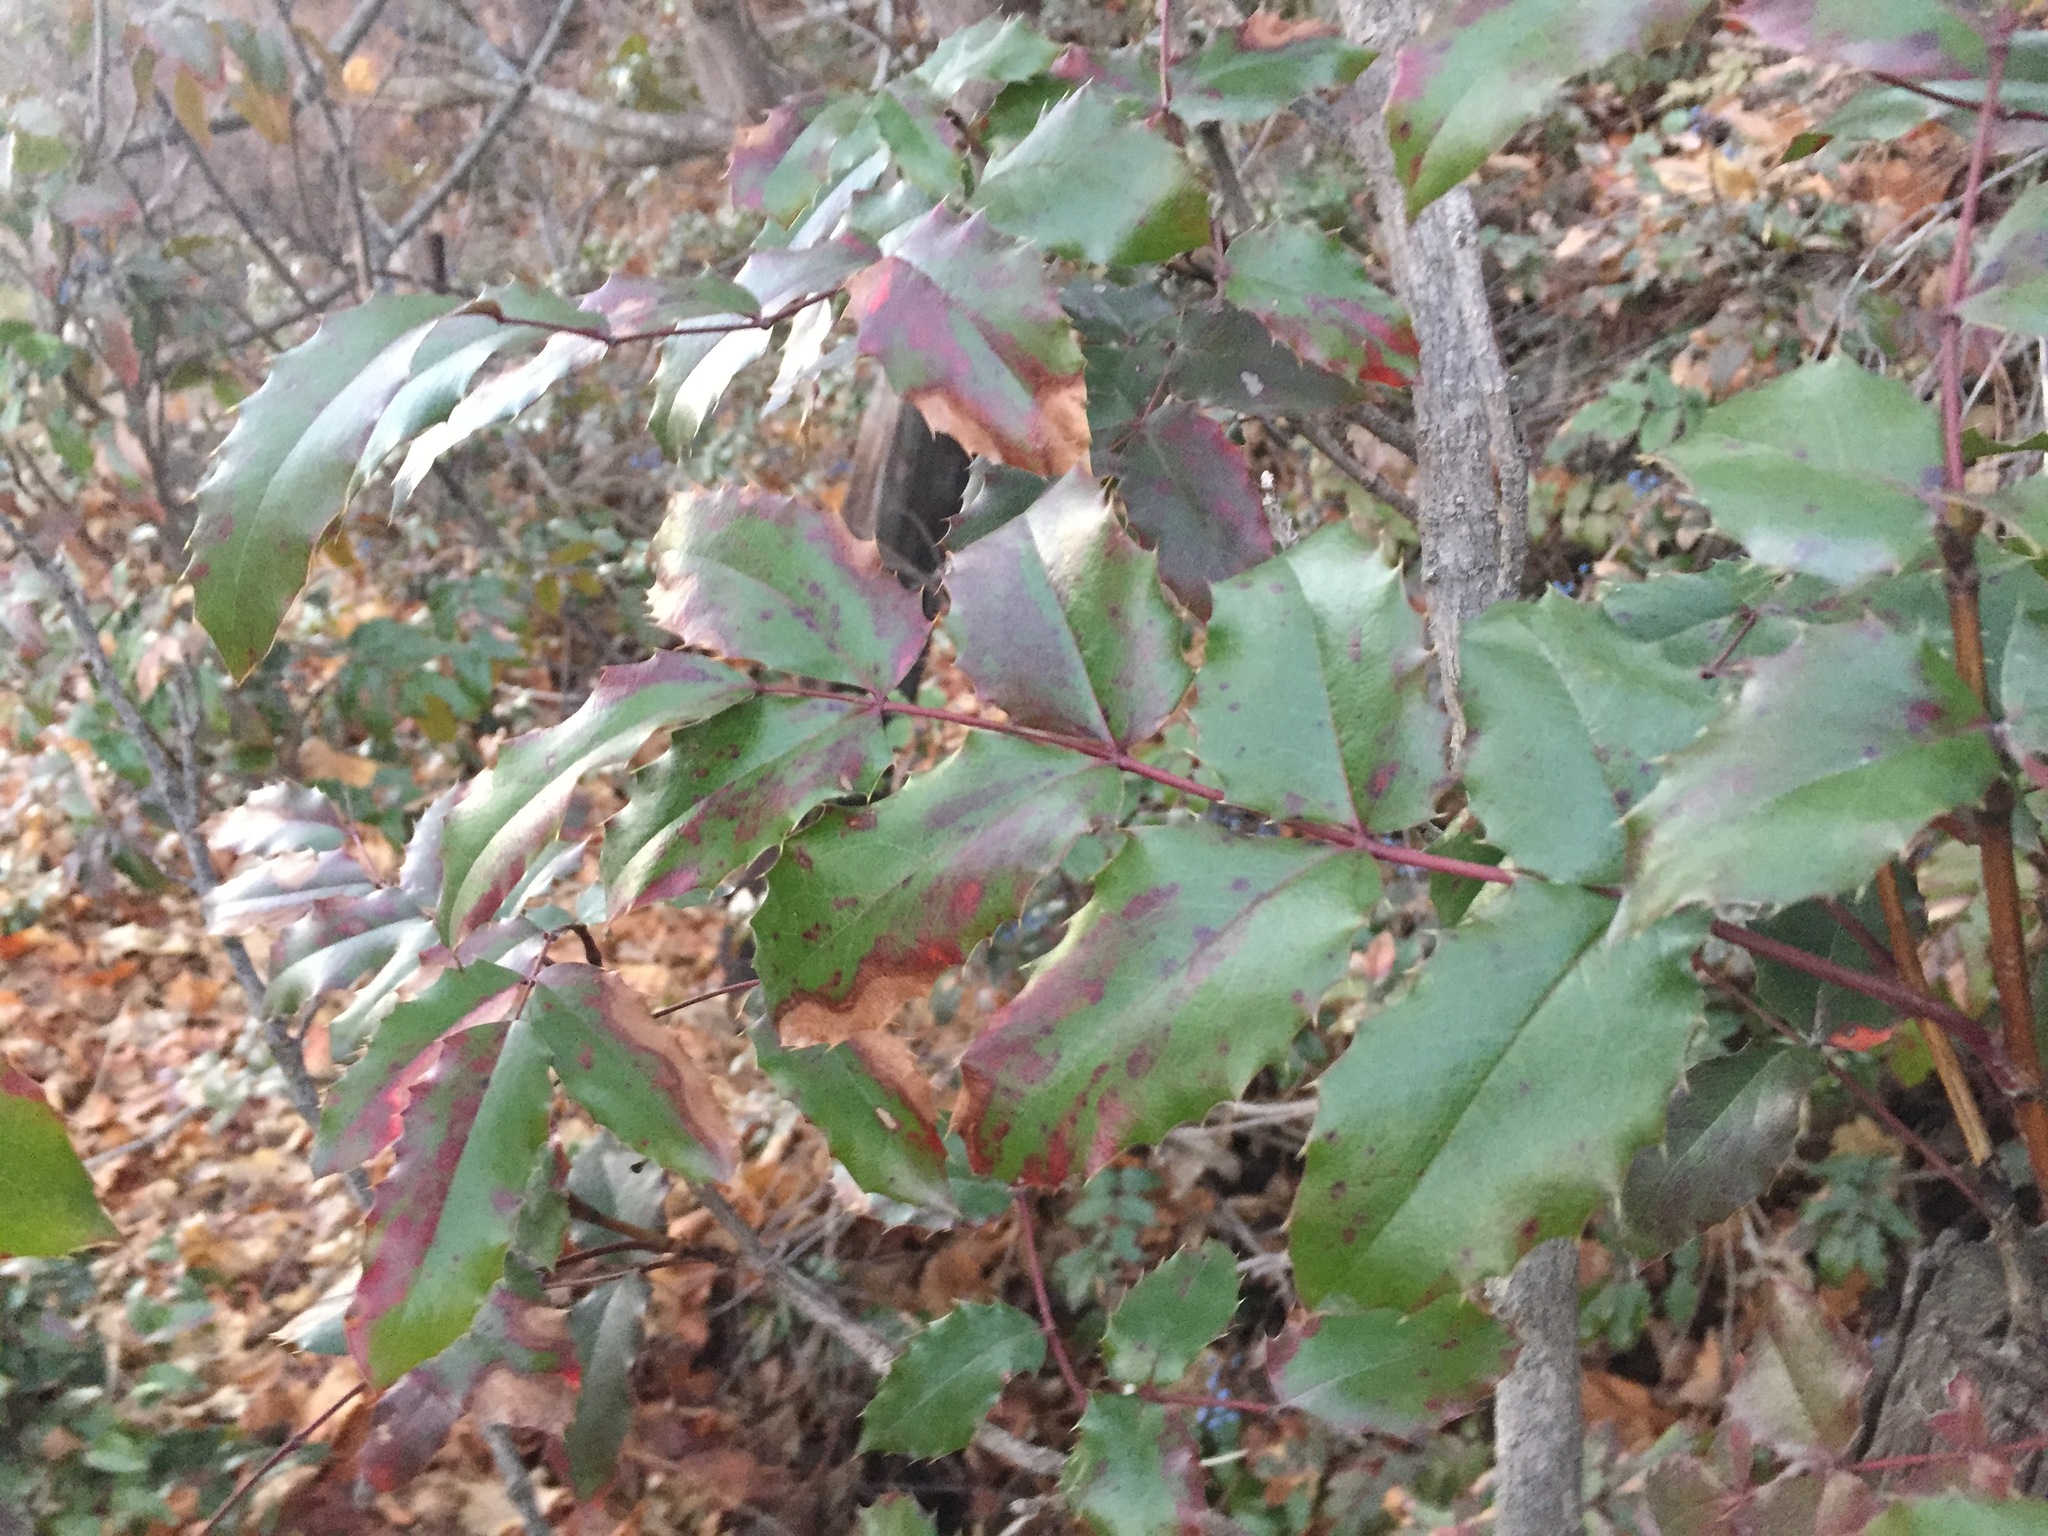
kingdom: Plantae
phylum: Tracheophyta
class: Magnoliopsida
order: Ranunculales
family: Berberidaceae
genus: Mahonia
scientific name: Mahonia aquifolium
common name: Oregon-grape
